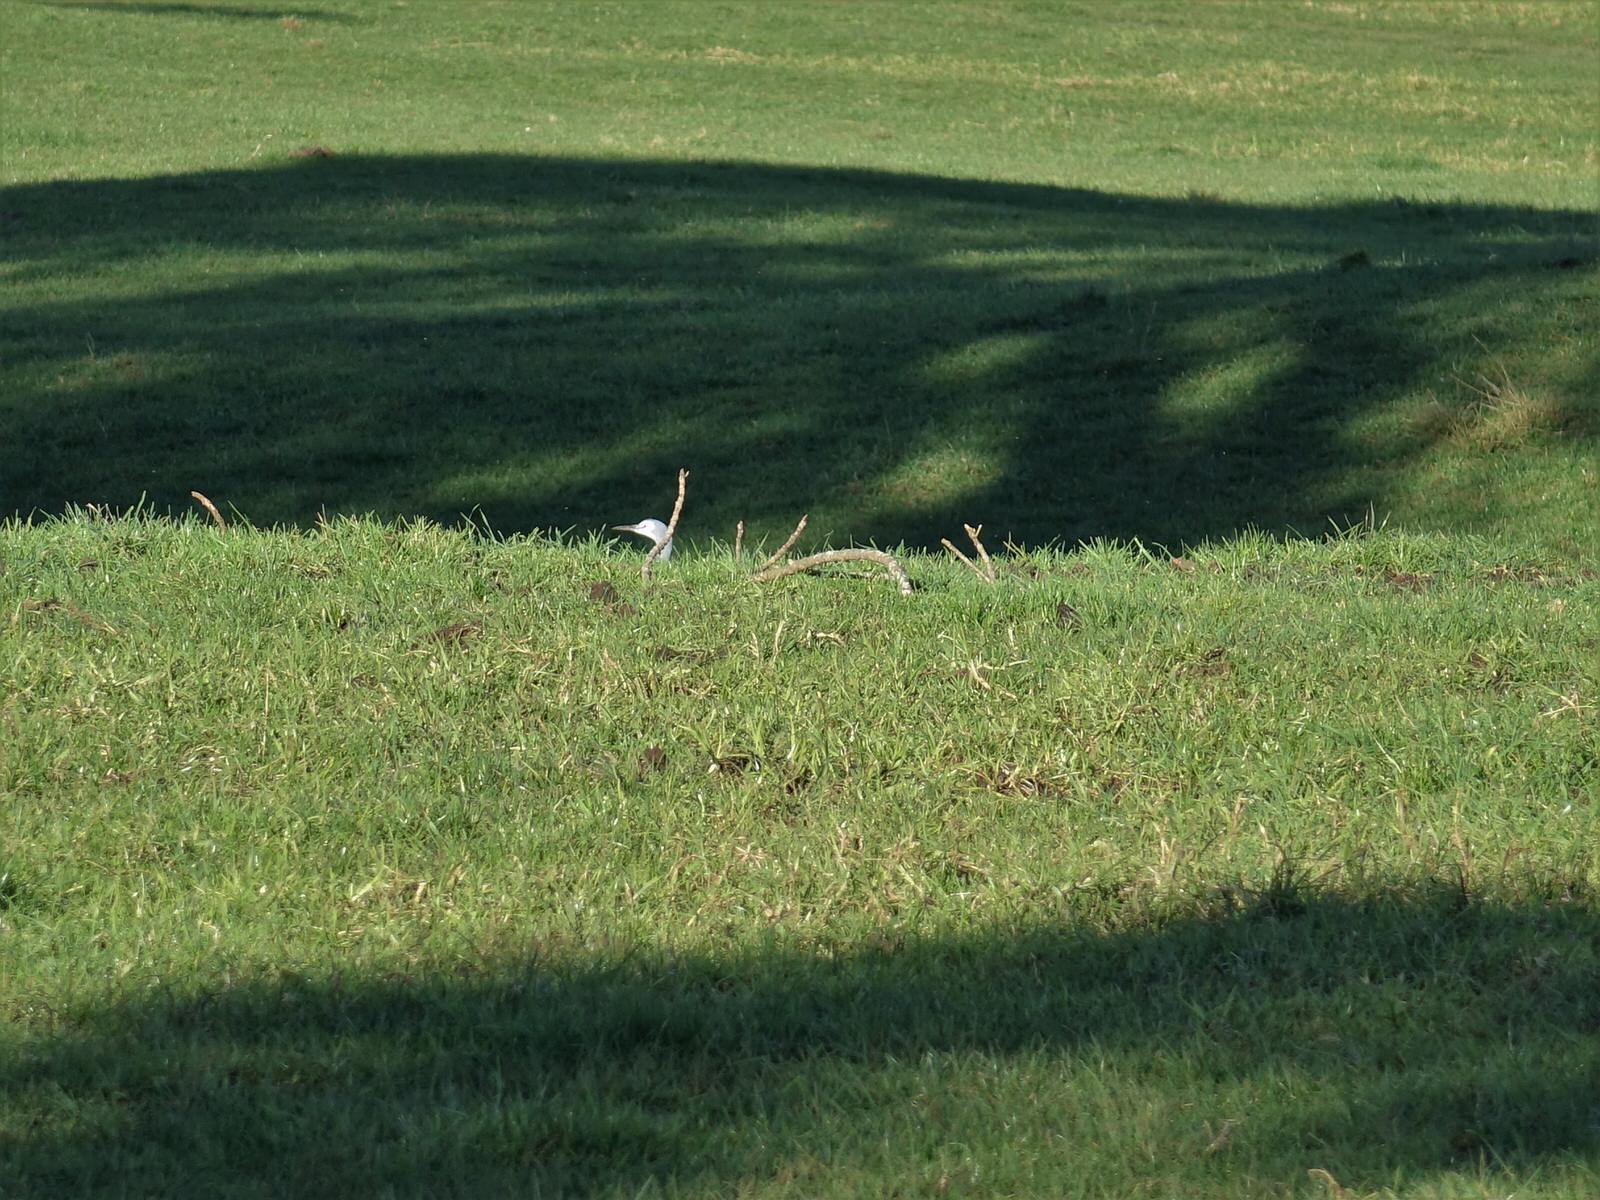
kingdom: Animalia
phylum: Chordata
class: Aves
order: Pelecaniformes
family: Ardeidae
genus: Egretta
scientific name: Egretta novaehollandiae
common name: White-faced heron
